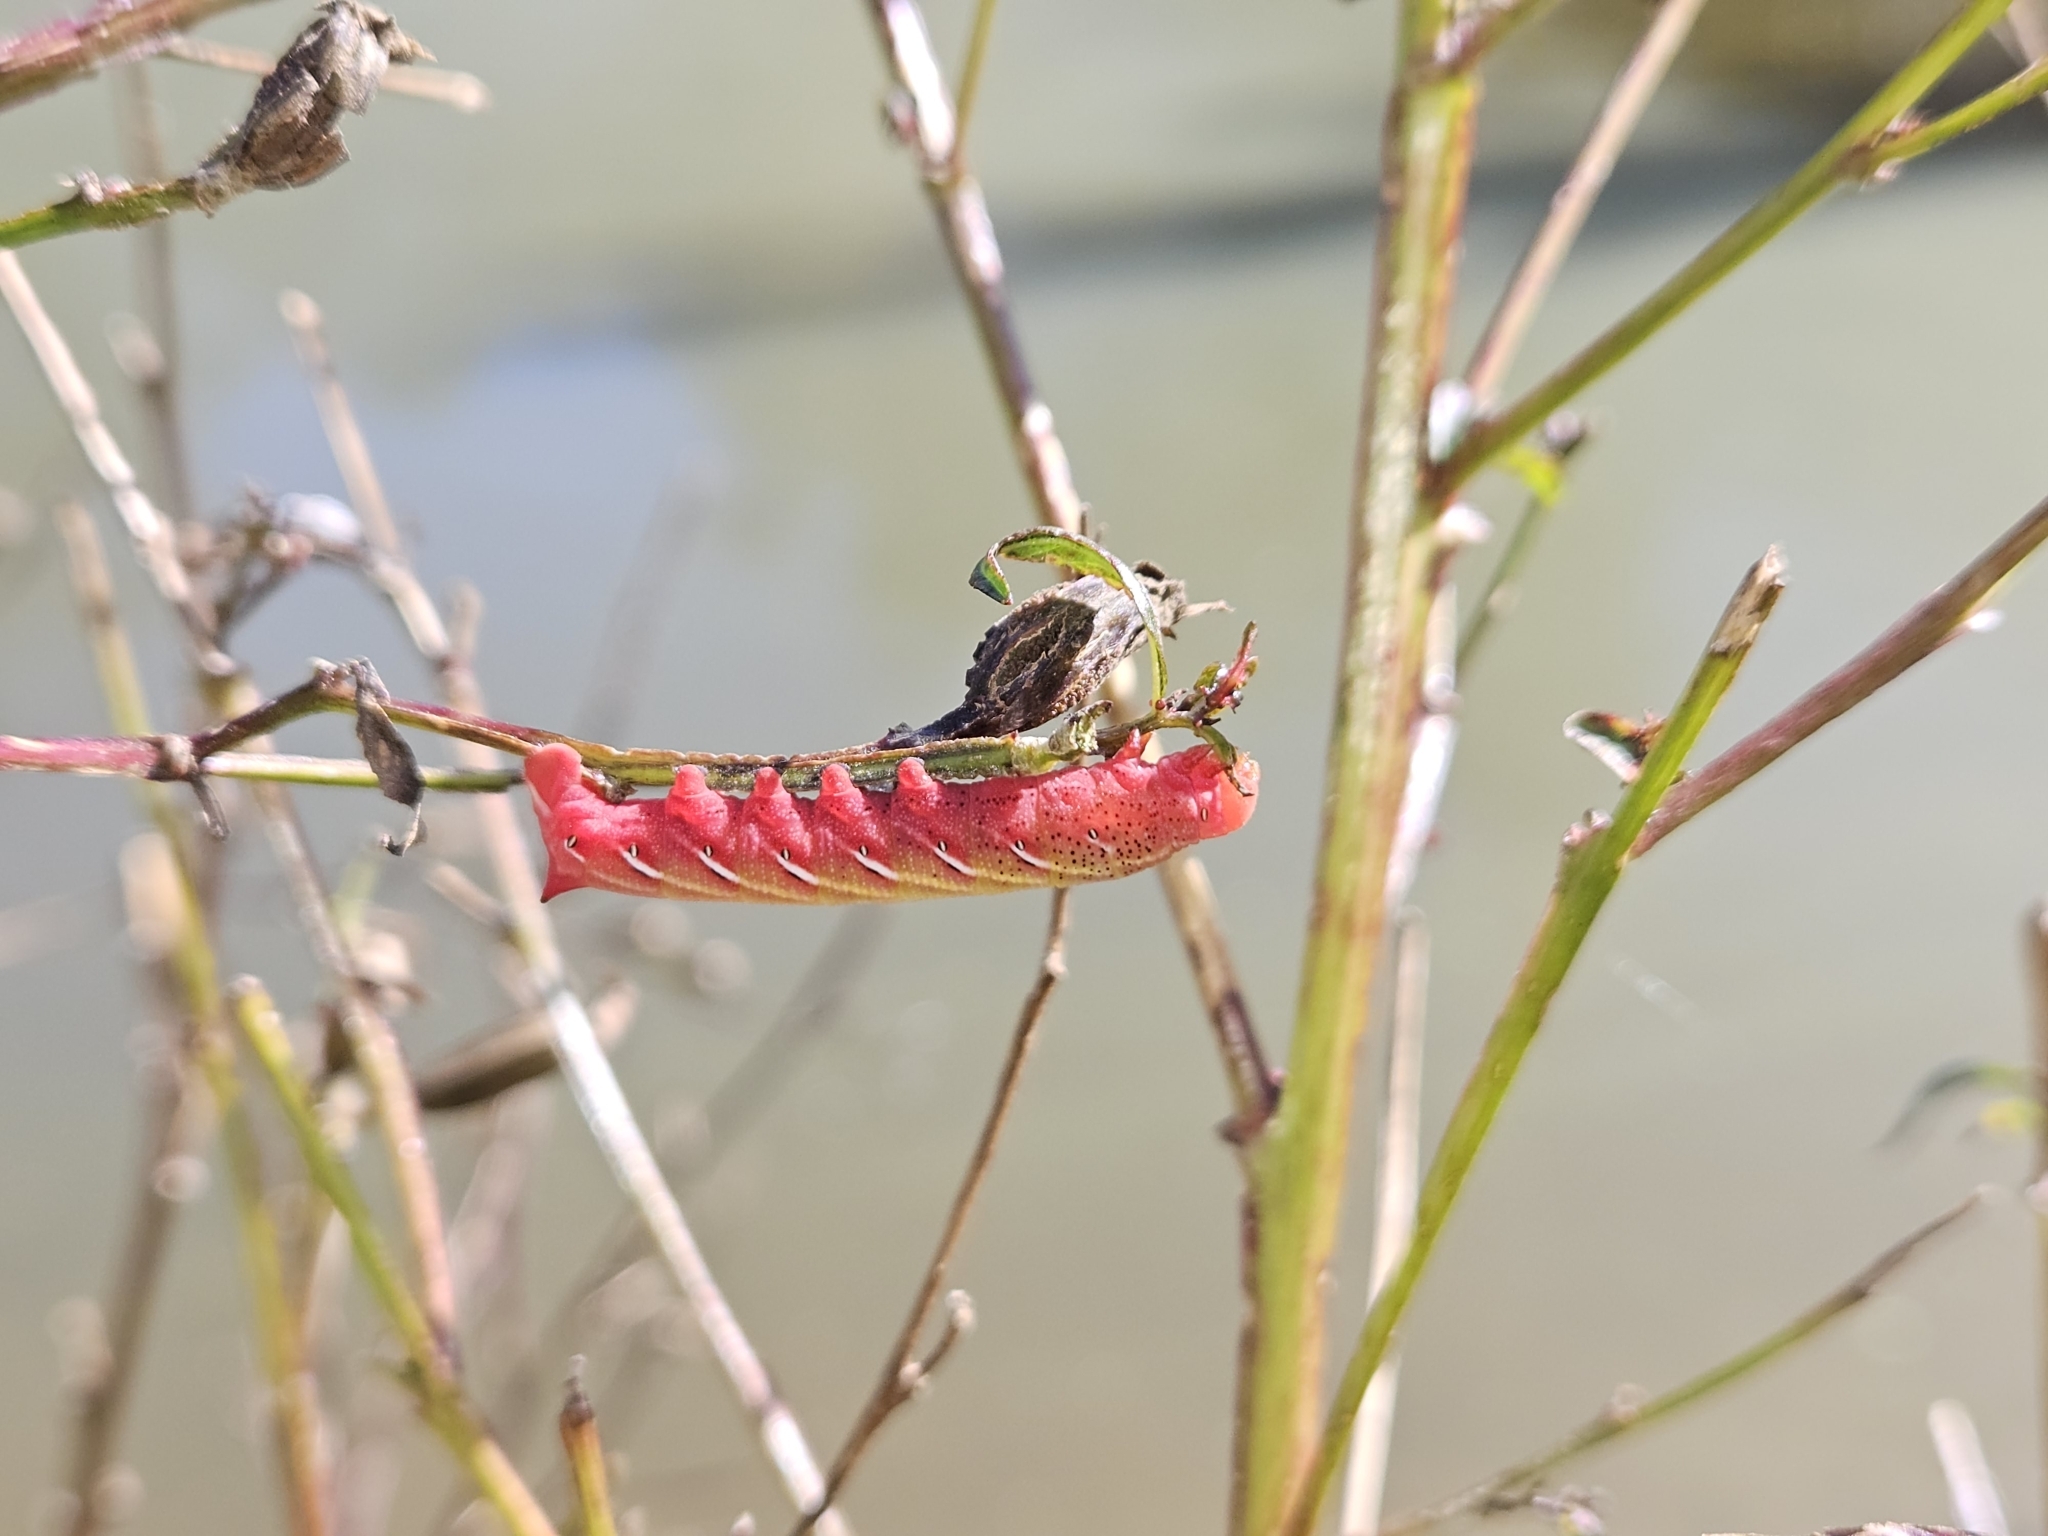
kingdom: Animalia
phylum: Arthropoda
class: Insecta
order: Lepidoptera
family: Sphingidae
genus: Eumorpha
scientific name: Eumorpha fasciatus
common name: Banded sphinx
